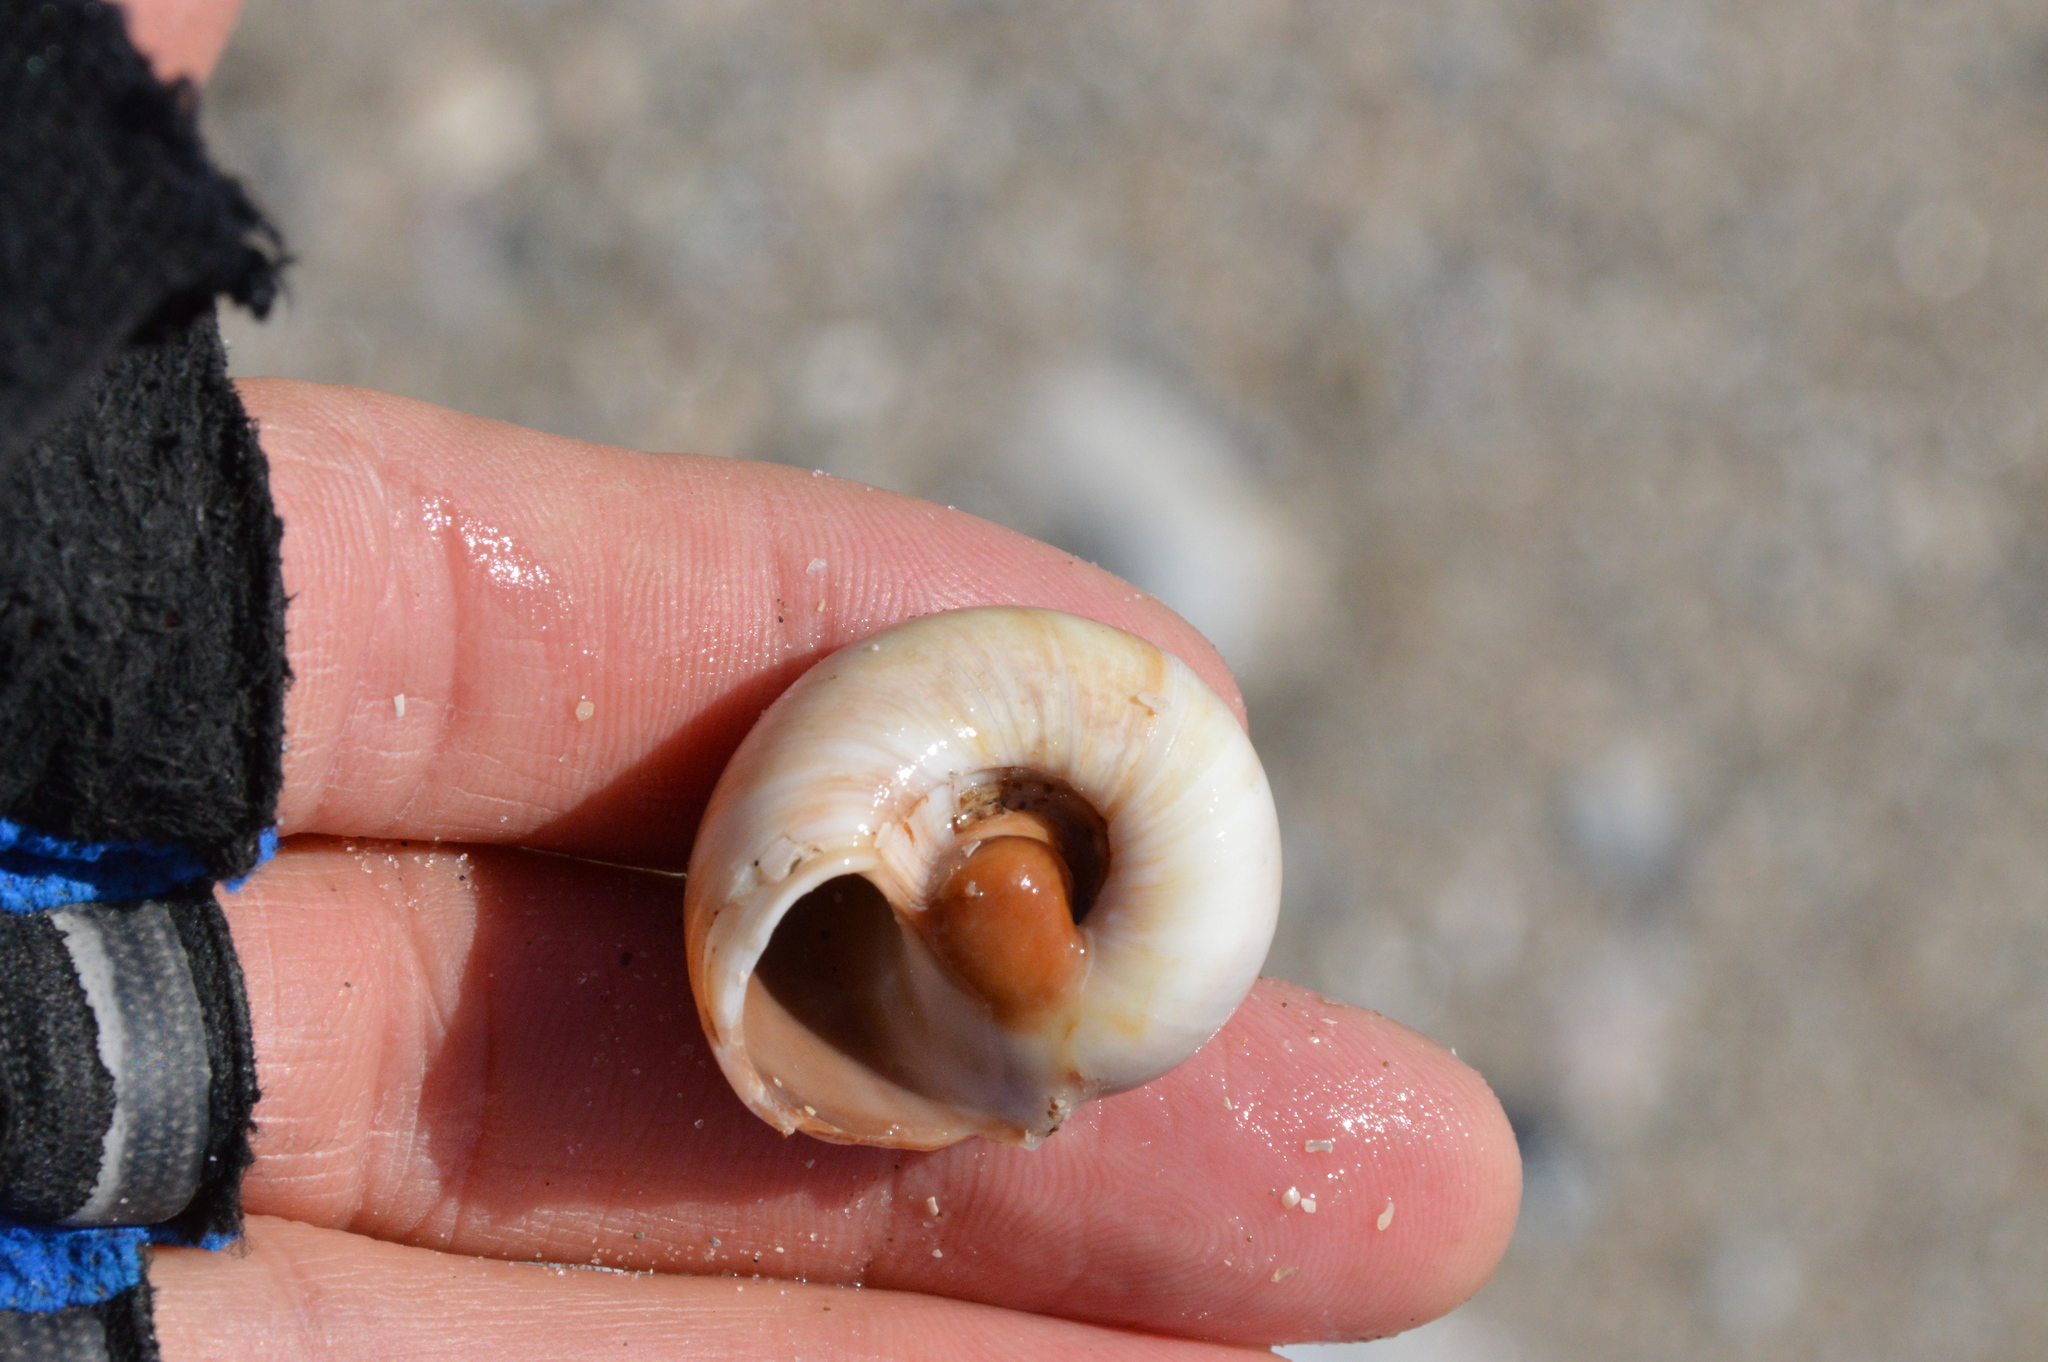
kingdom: Animalia
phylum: Mollusca
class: Gastropoda
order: Littorinimorpha
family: Naticidae
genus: Neverita
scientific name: Neverita delessertiana
